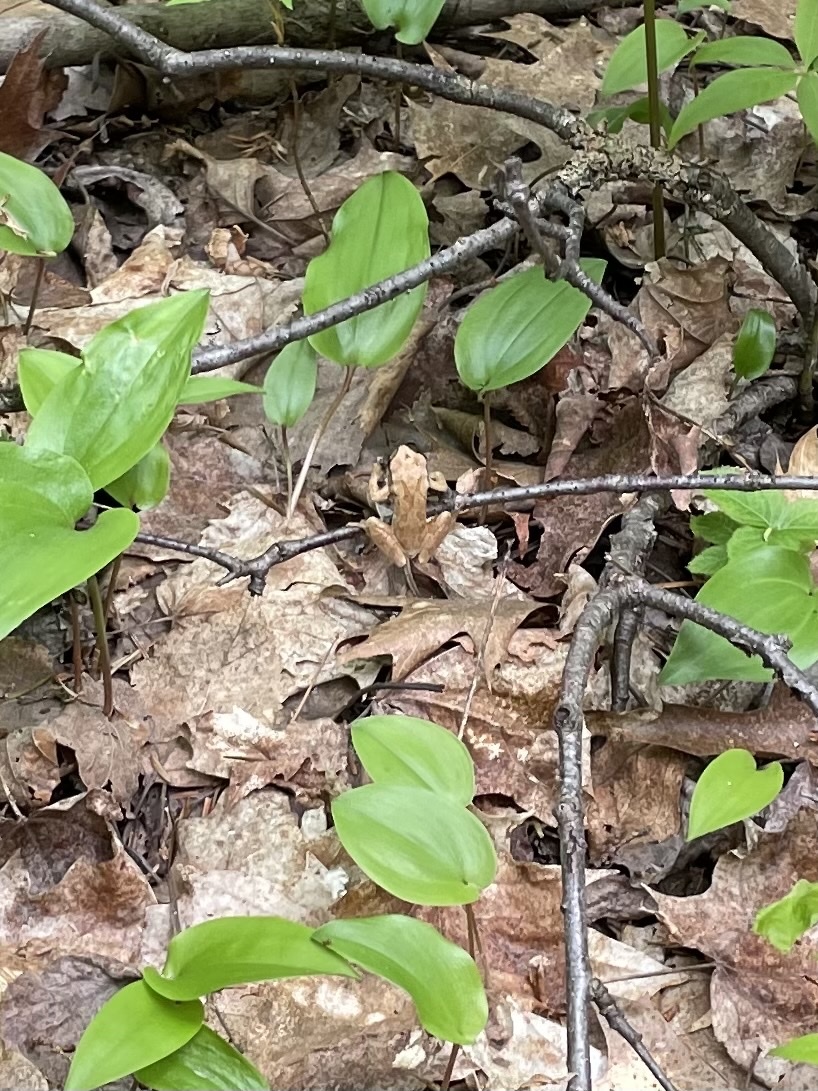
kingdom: Animalia
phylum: Chordata
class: Amphibia
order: Anura
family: Hylidae
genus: Pseudacris
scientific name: Pseudacris crucifer
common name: Spring peeper
